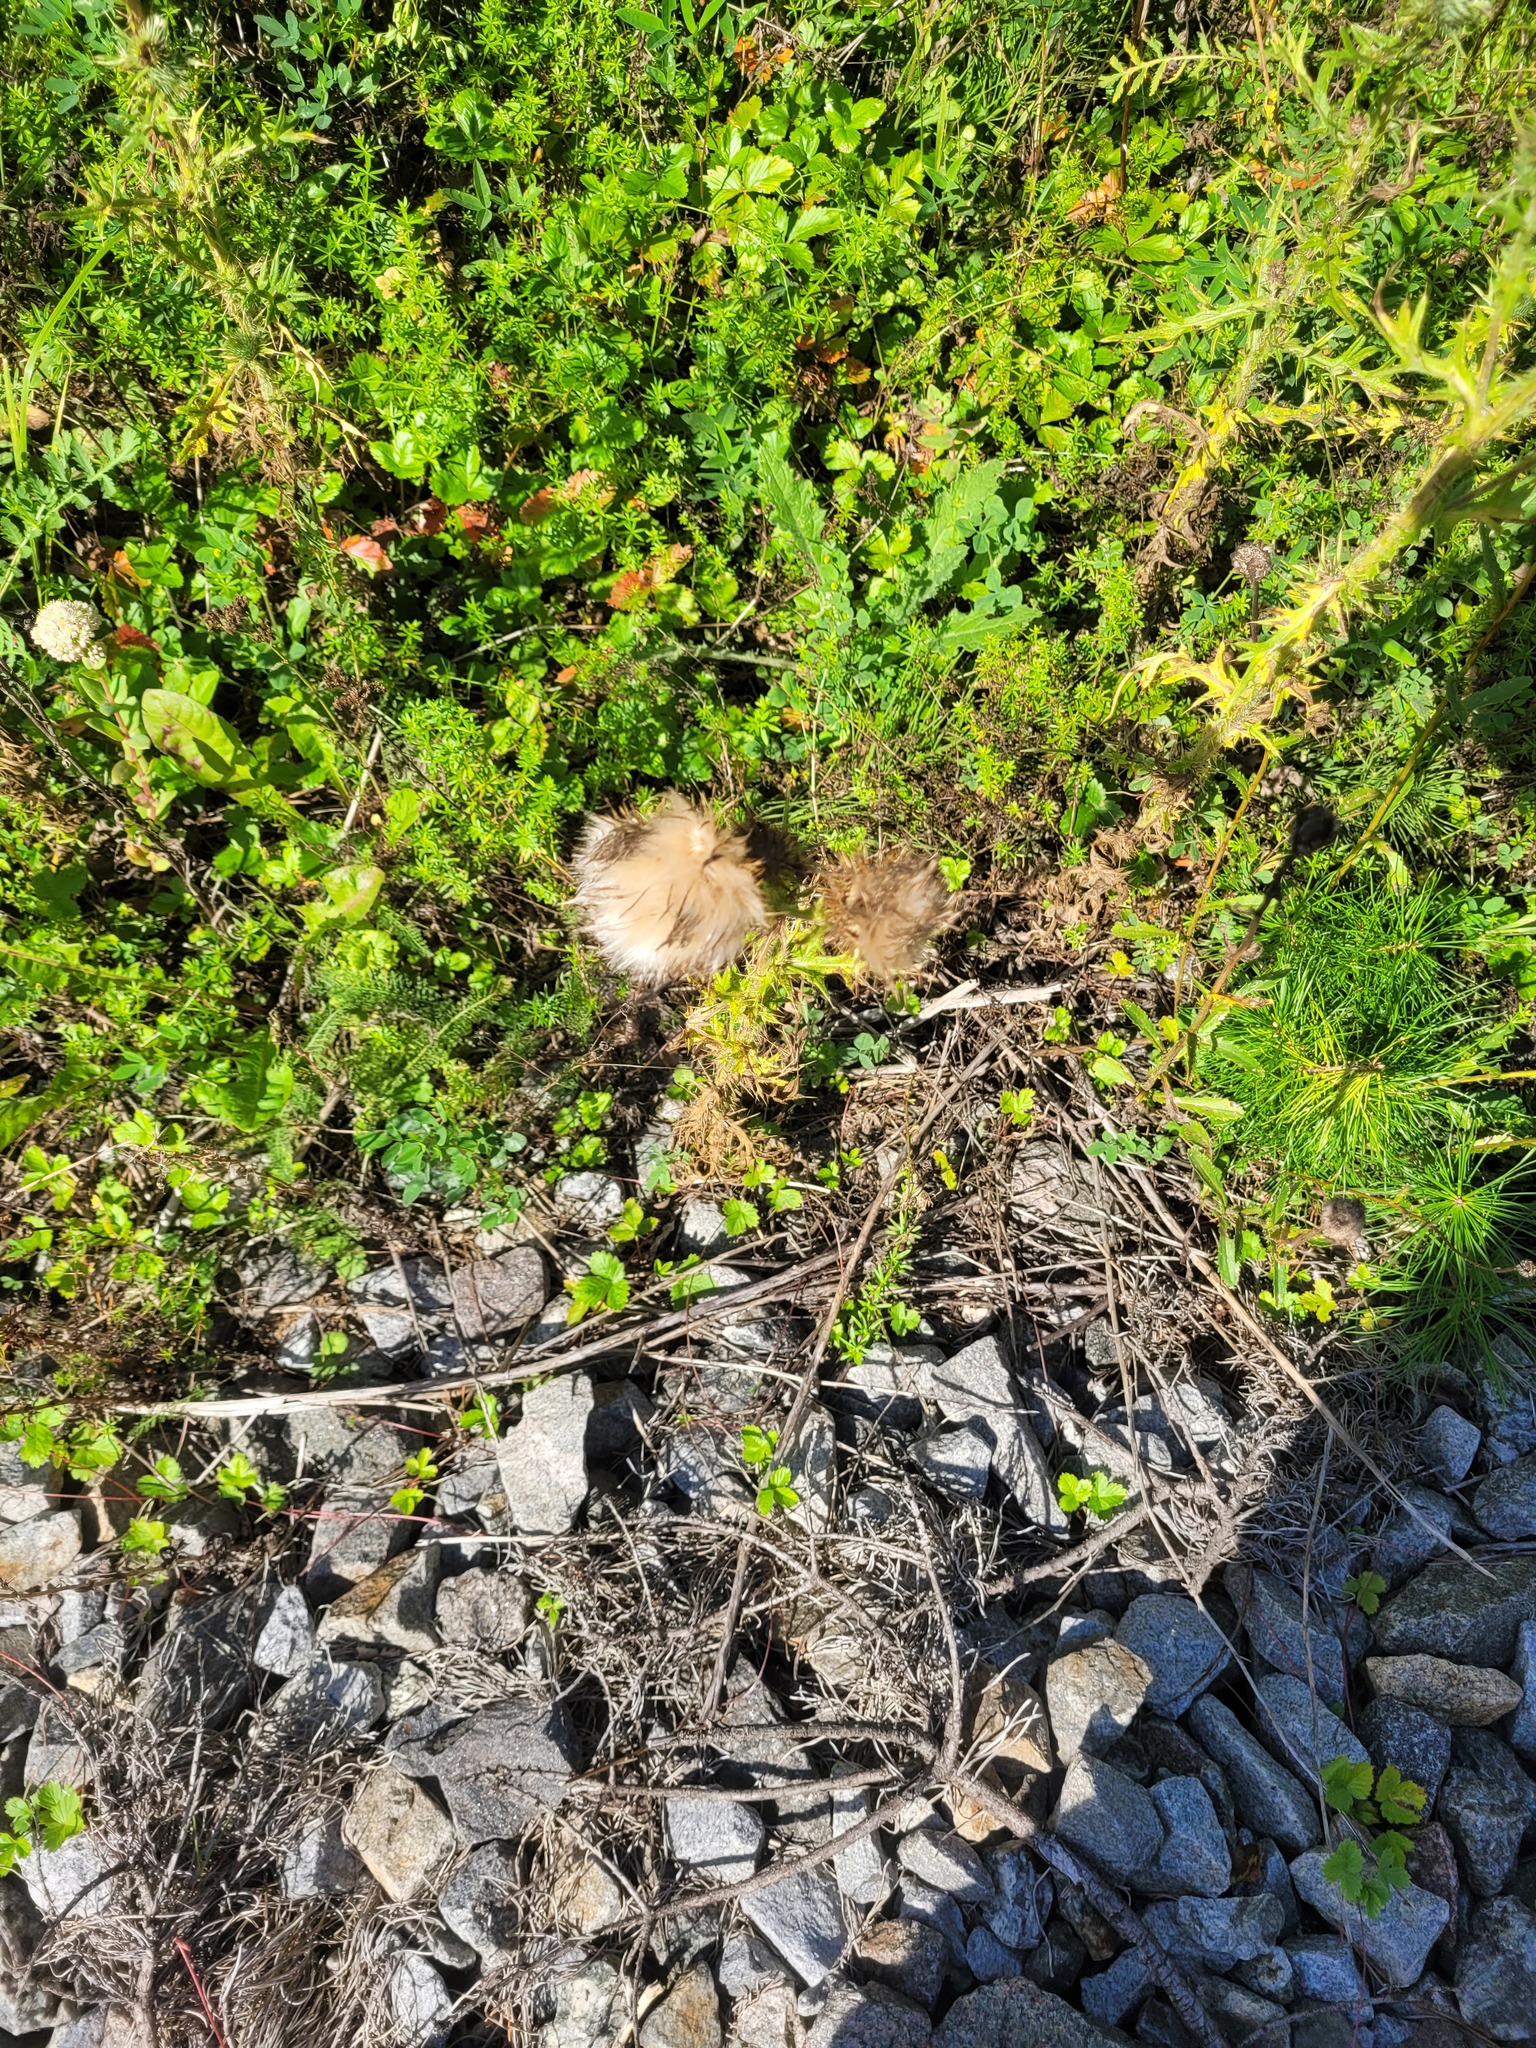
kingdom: Plantae
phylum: Tracheophyta
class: Magnoliopsida
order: Asterales
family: Asteraceae
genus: Cirsium
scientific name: Cirsium vulgare
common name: Bull thistle
